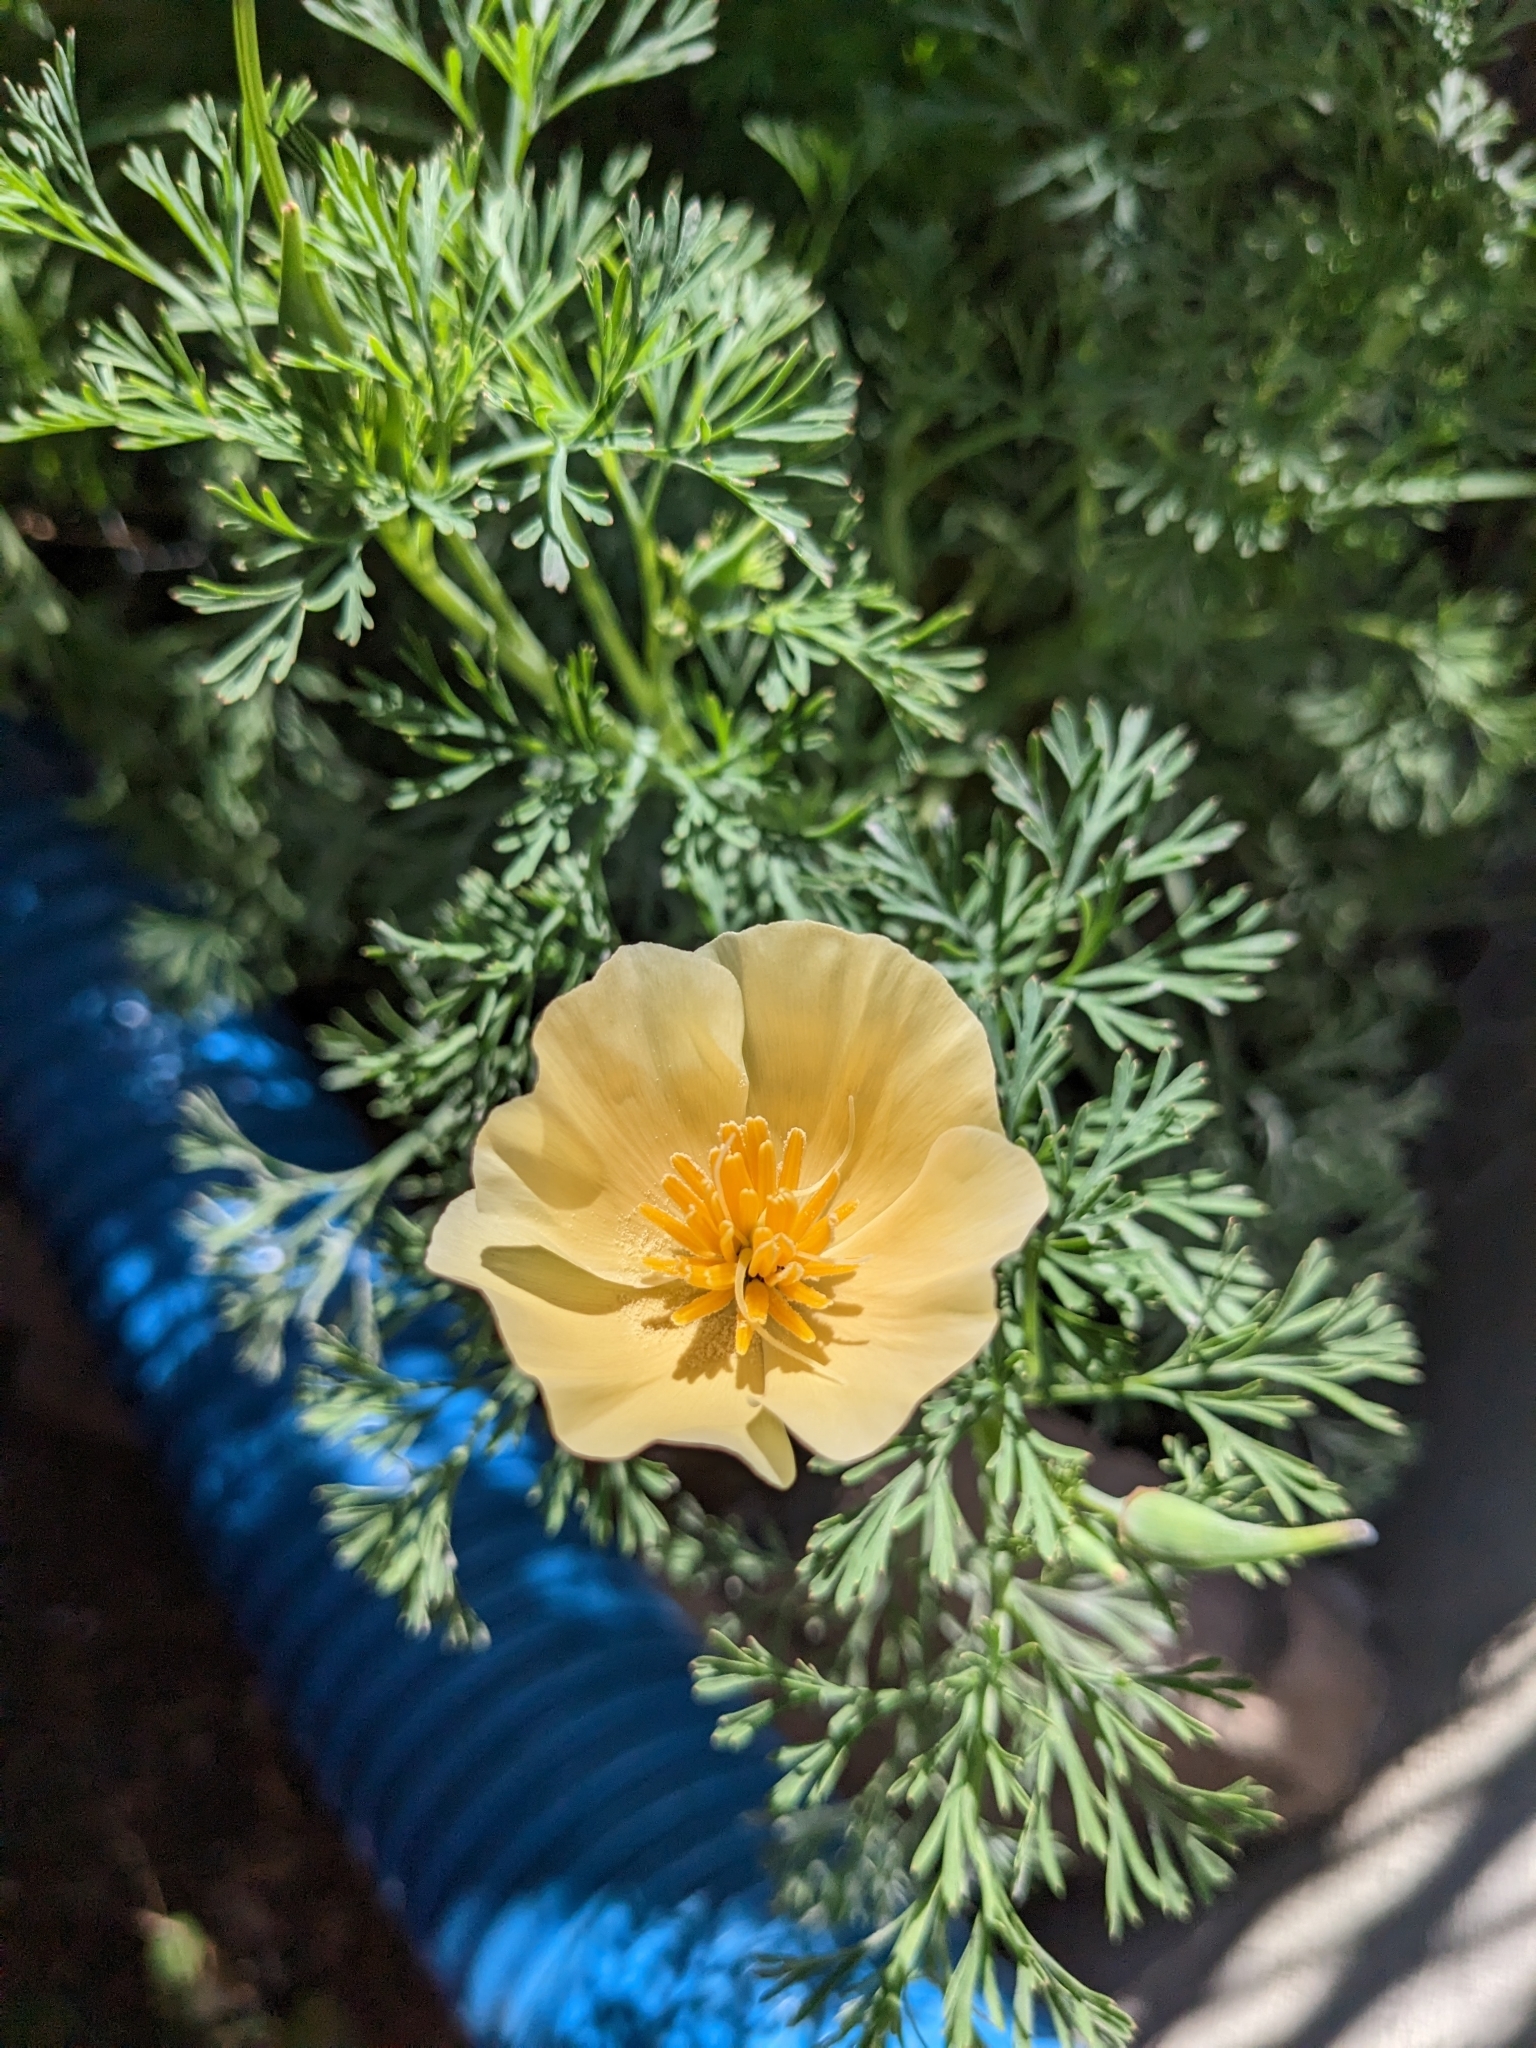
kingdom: Plantae
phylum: Tracheophyta
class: Magnoliopsida
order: Ranunculales
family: Papaveraceae
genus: Eschscholzia
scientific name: Eschscholzia californica
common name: California poppy
